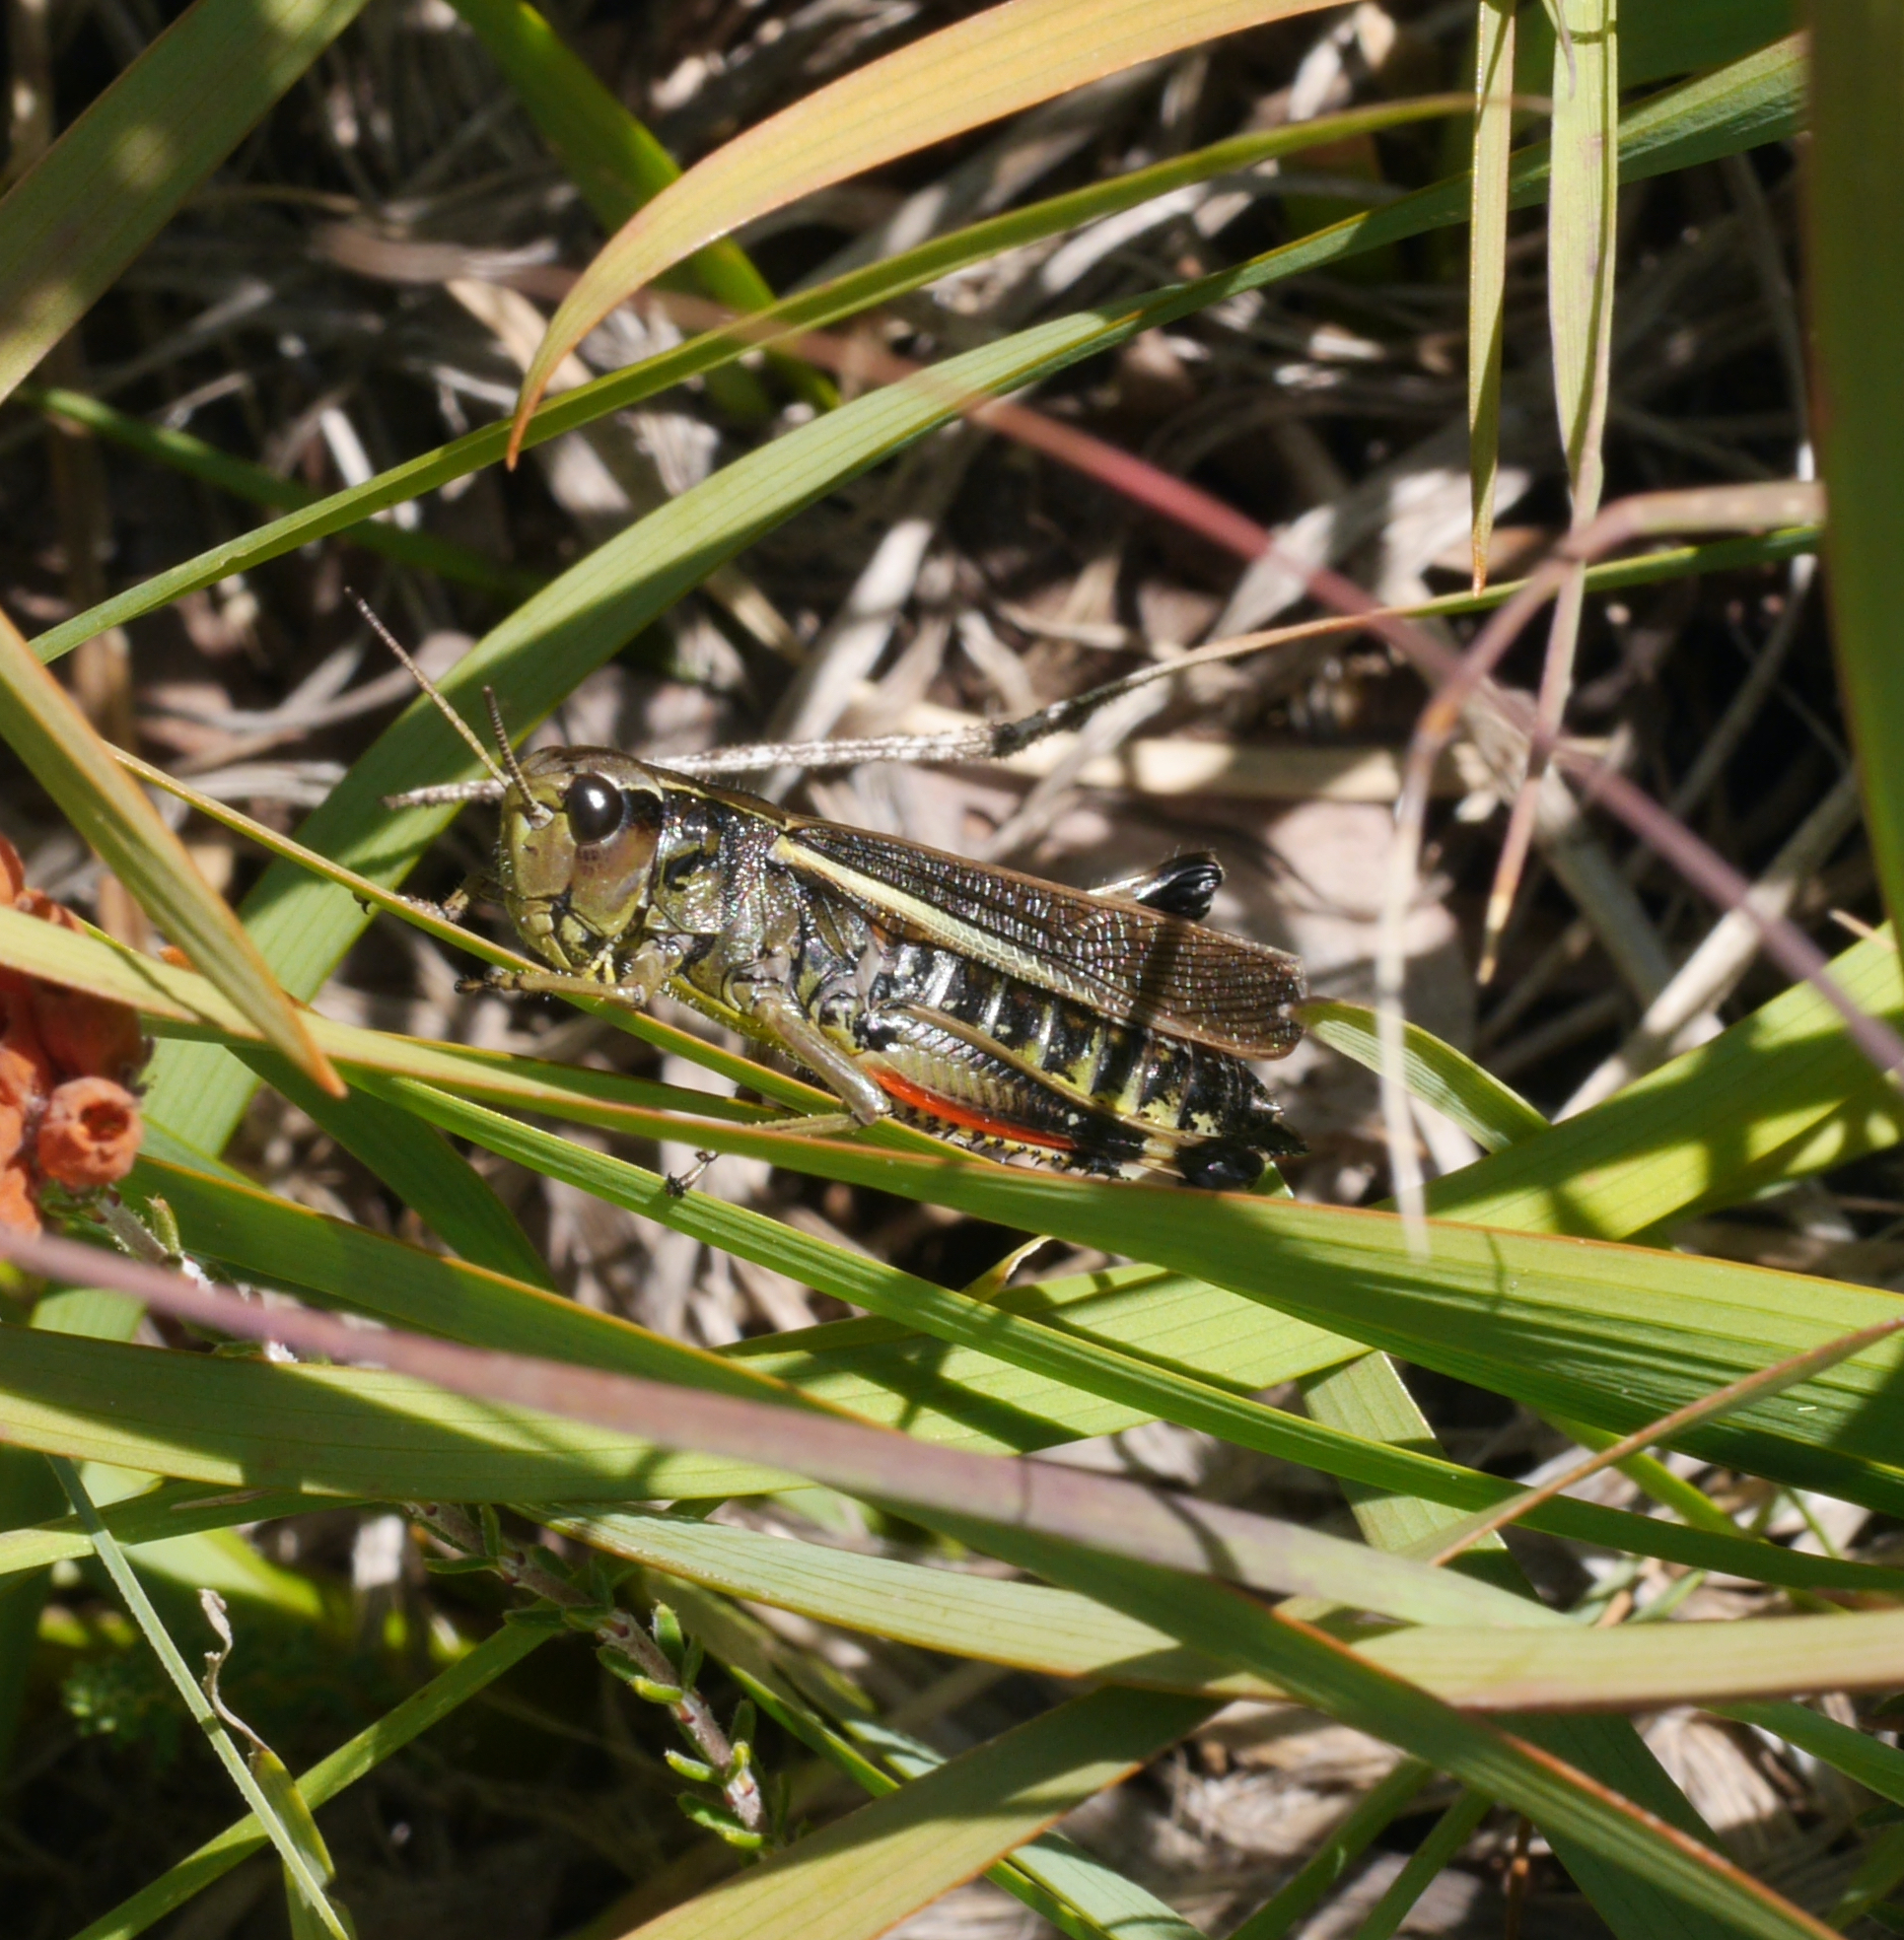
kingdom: Animalia
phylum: Arthropoda
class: Insecta
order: Orthoptera
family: Acrididae
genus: Stethophyma
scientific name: Stethophyma grossum
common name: Large marsh grasshopper
